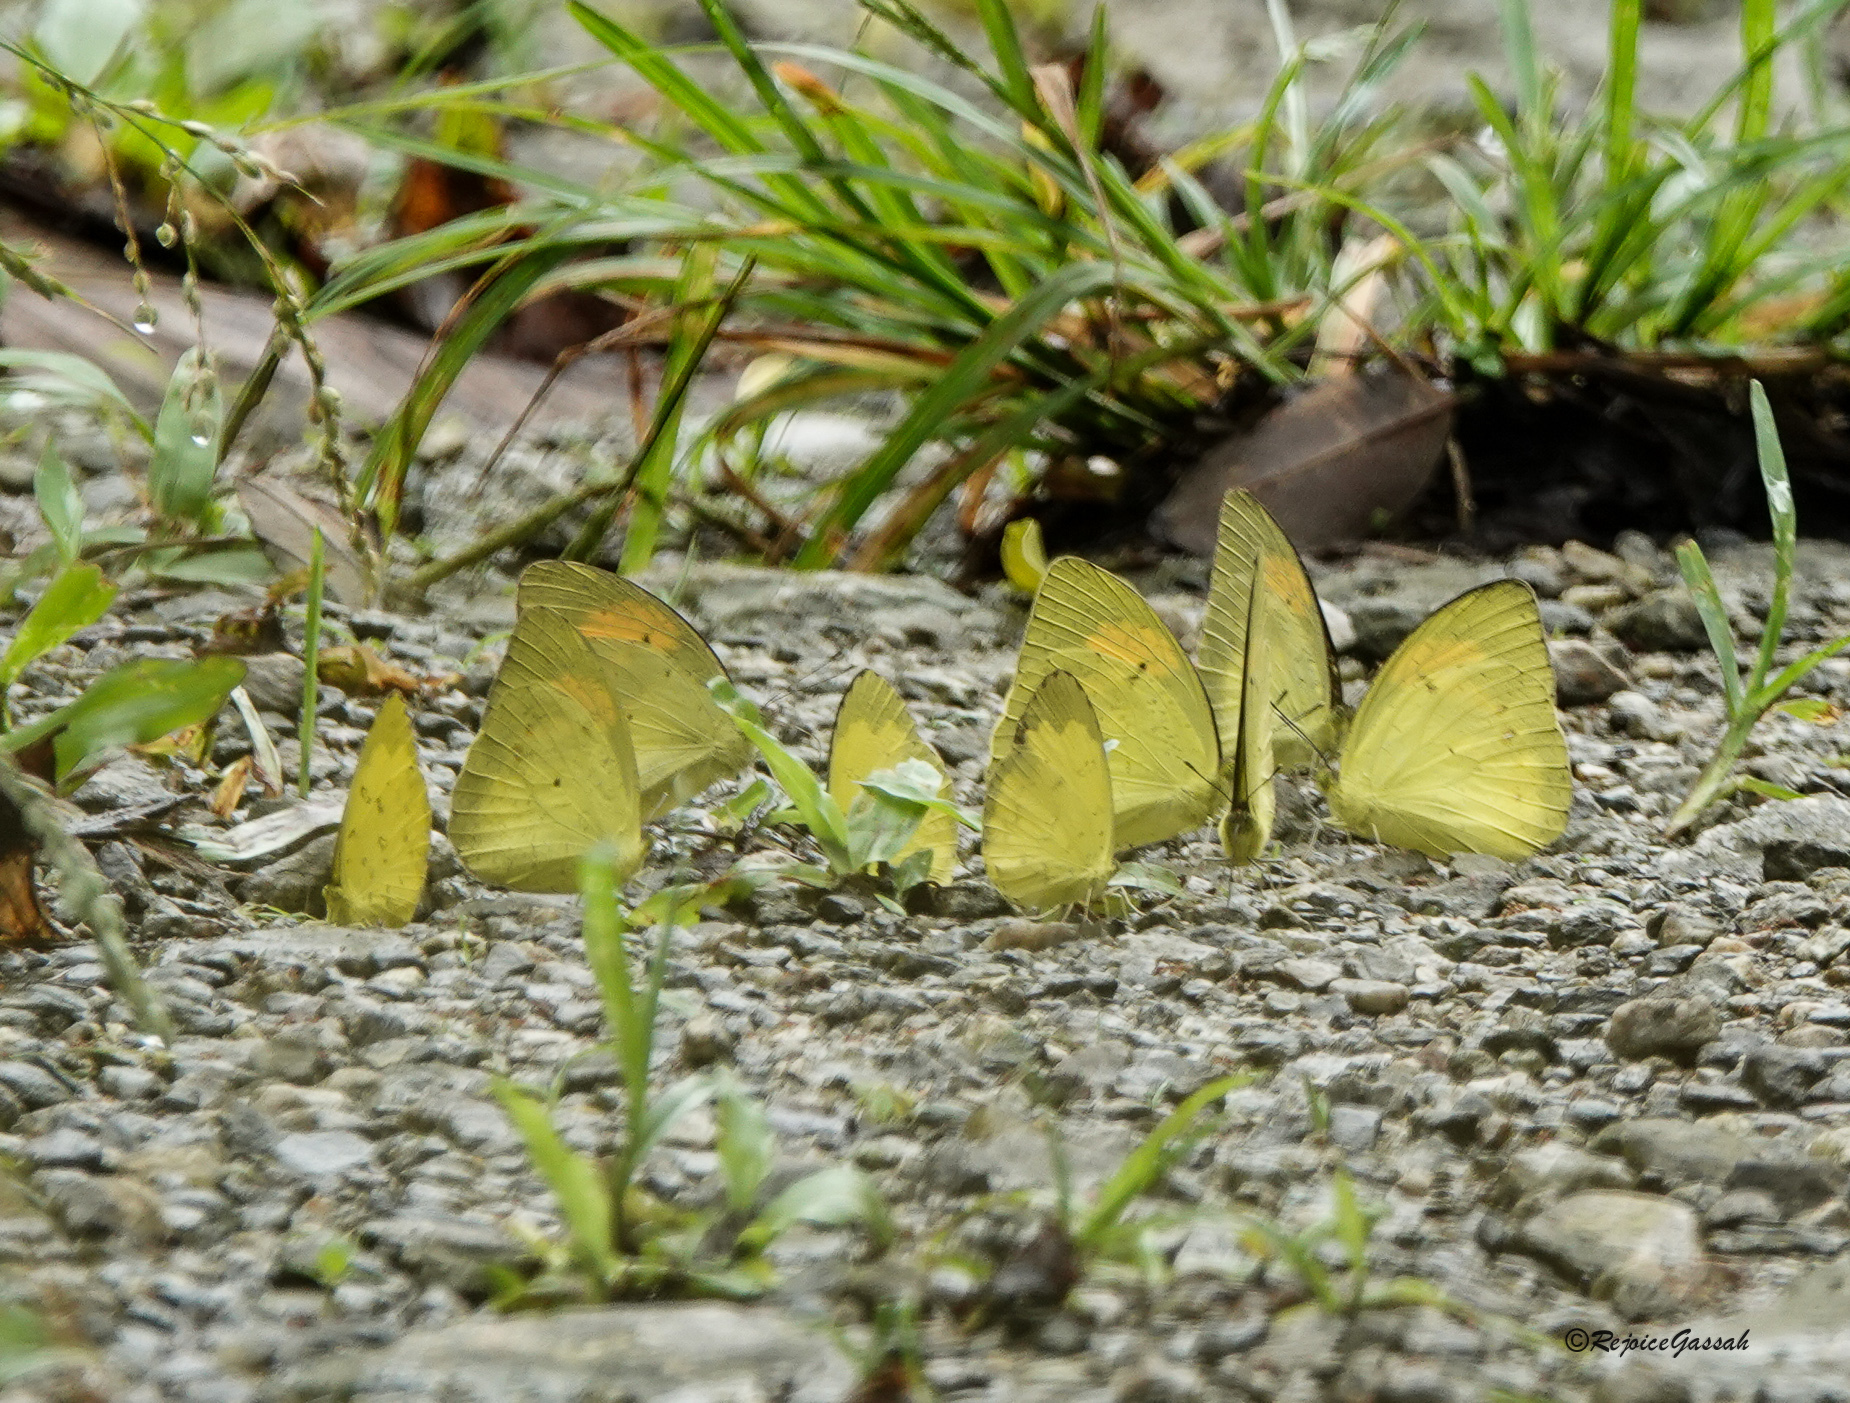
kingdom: Animalia
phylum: Arthropoda
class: Insecta
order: Lepidoptera
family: Pieridae
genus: Ixias
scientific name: Ixias pyrene
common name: Yellow orange tip
